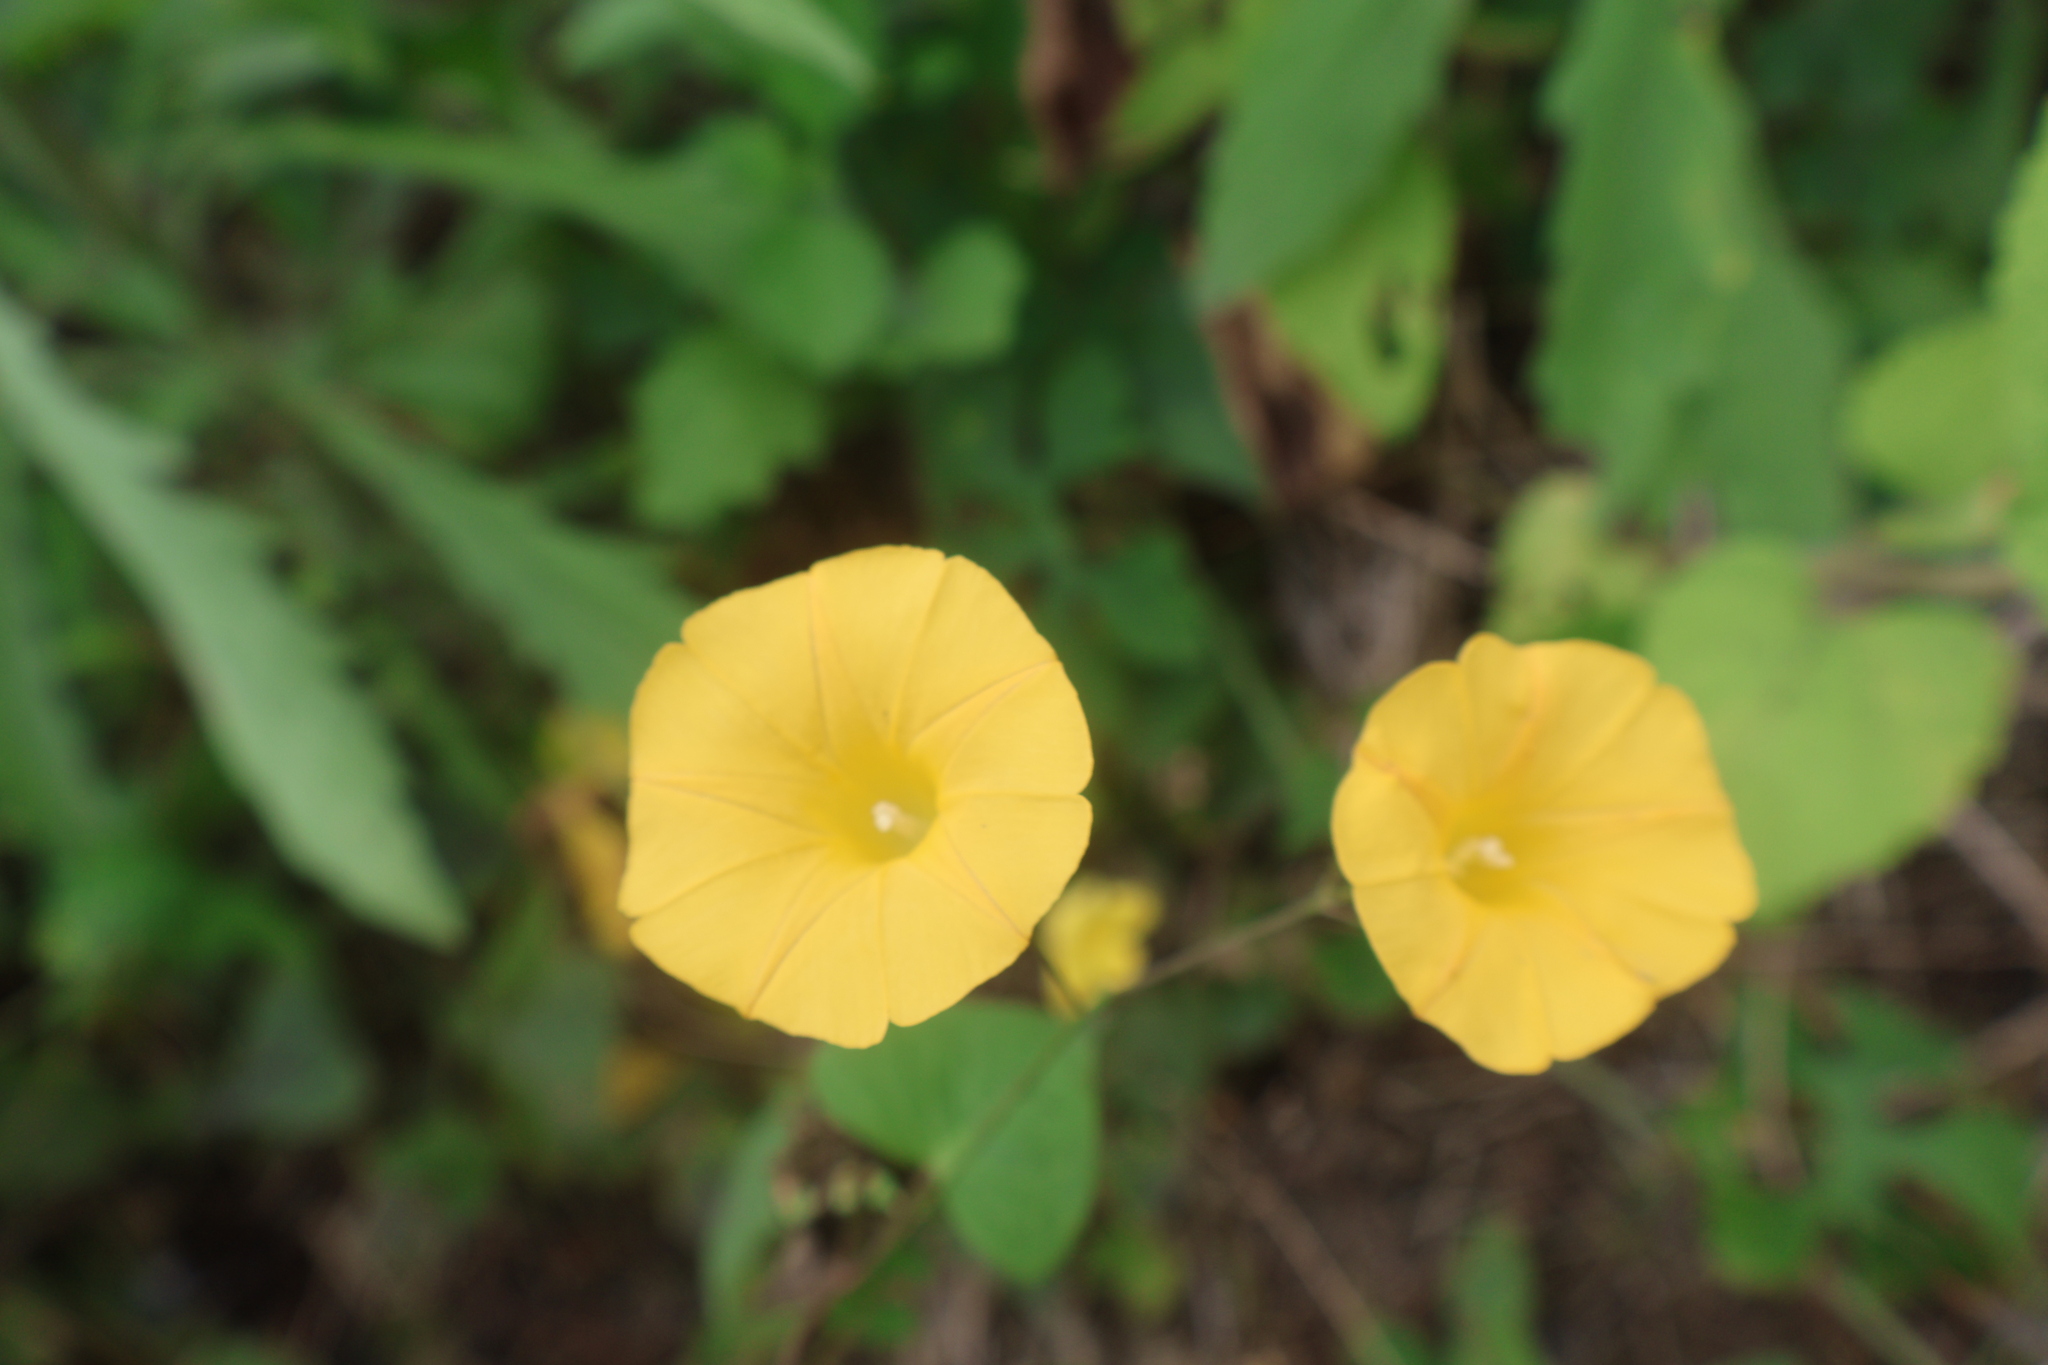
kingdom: Plantae
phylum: Tracheophyta
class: Magnoliopsida
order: Solanales
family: Convolvulaceae
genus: Ipomoea
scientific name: Ipomoea microsepala
